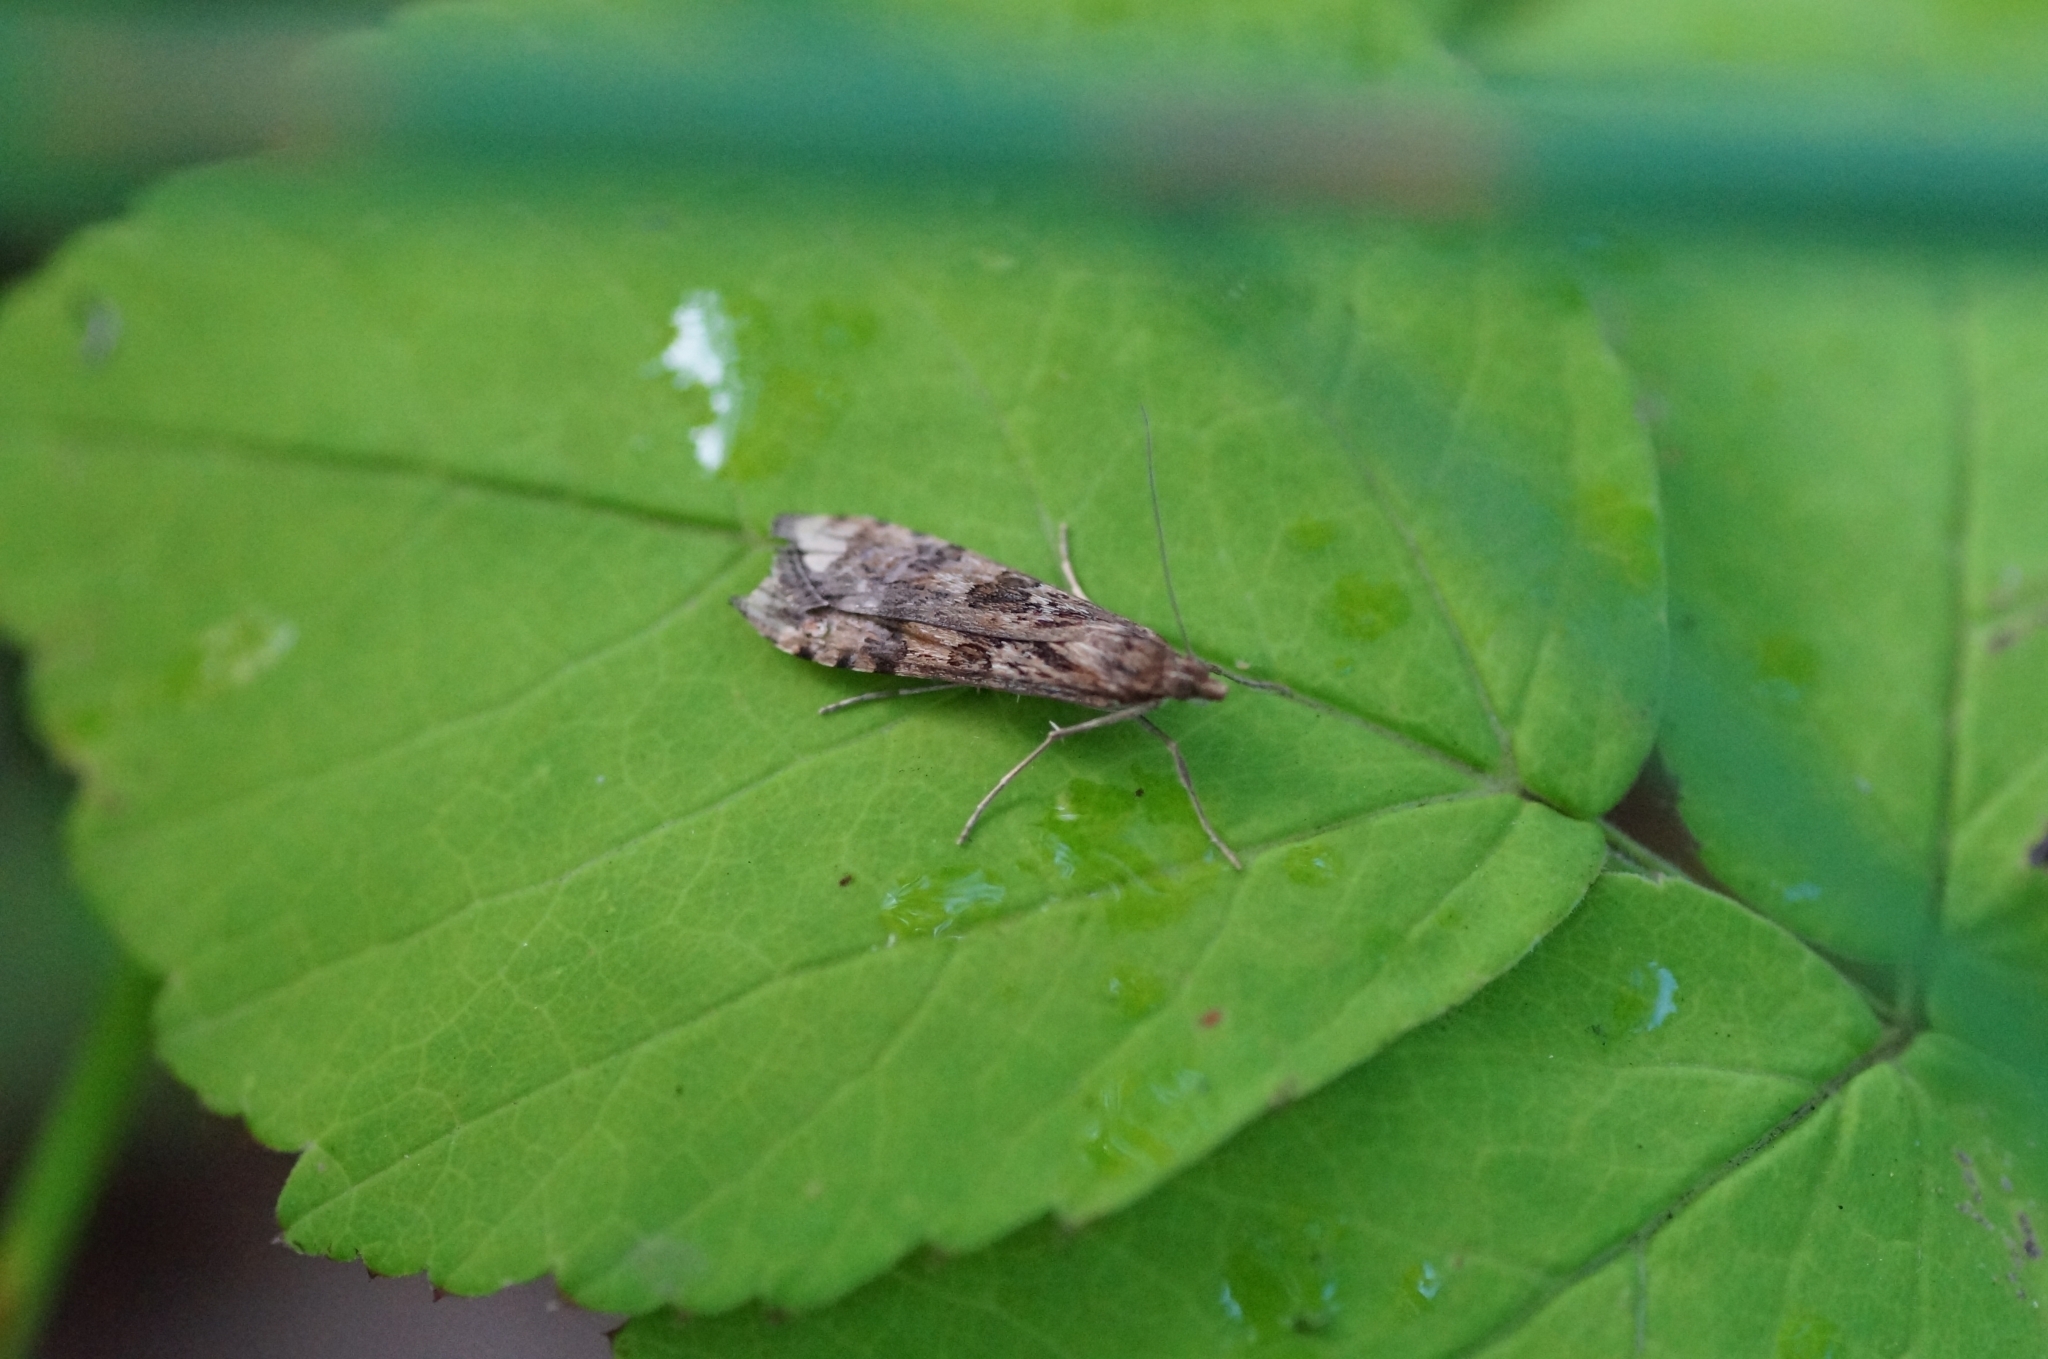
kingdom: Animalia
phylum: Arthropoda
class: Insecta
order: Lepidoptera
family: Crambidae
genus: Nomophila
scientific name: Nomophila noctuella
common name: Rush veneer
